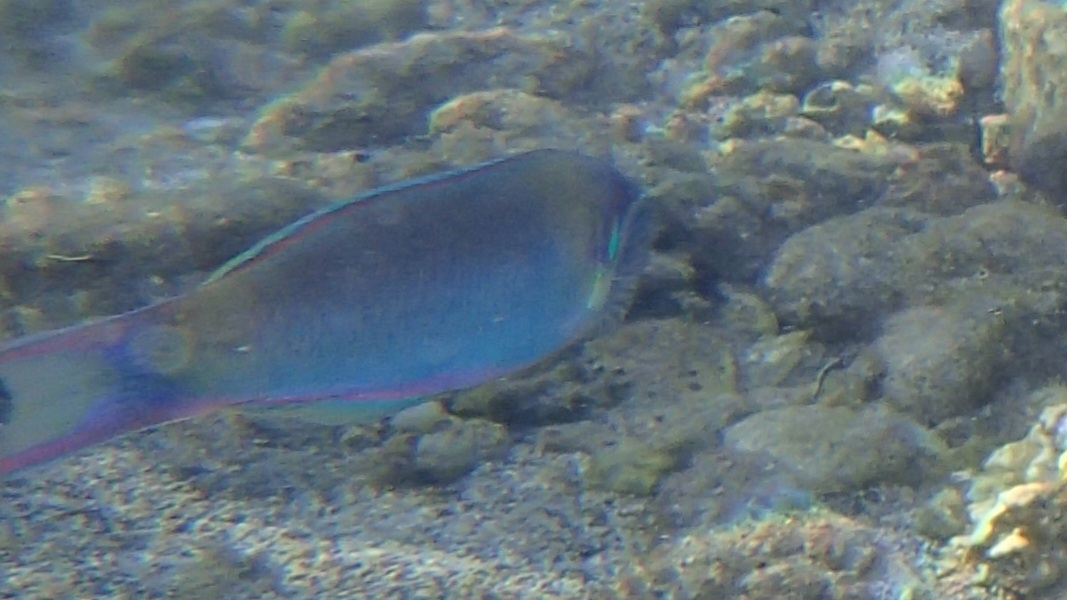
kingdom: Animalia
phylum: Chordata
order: Perciformes
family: Labridae
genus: Thalassoma
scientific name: Thalassoma genivittatum
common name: Red-cheek wrasse
